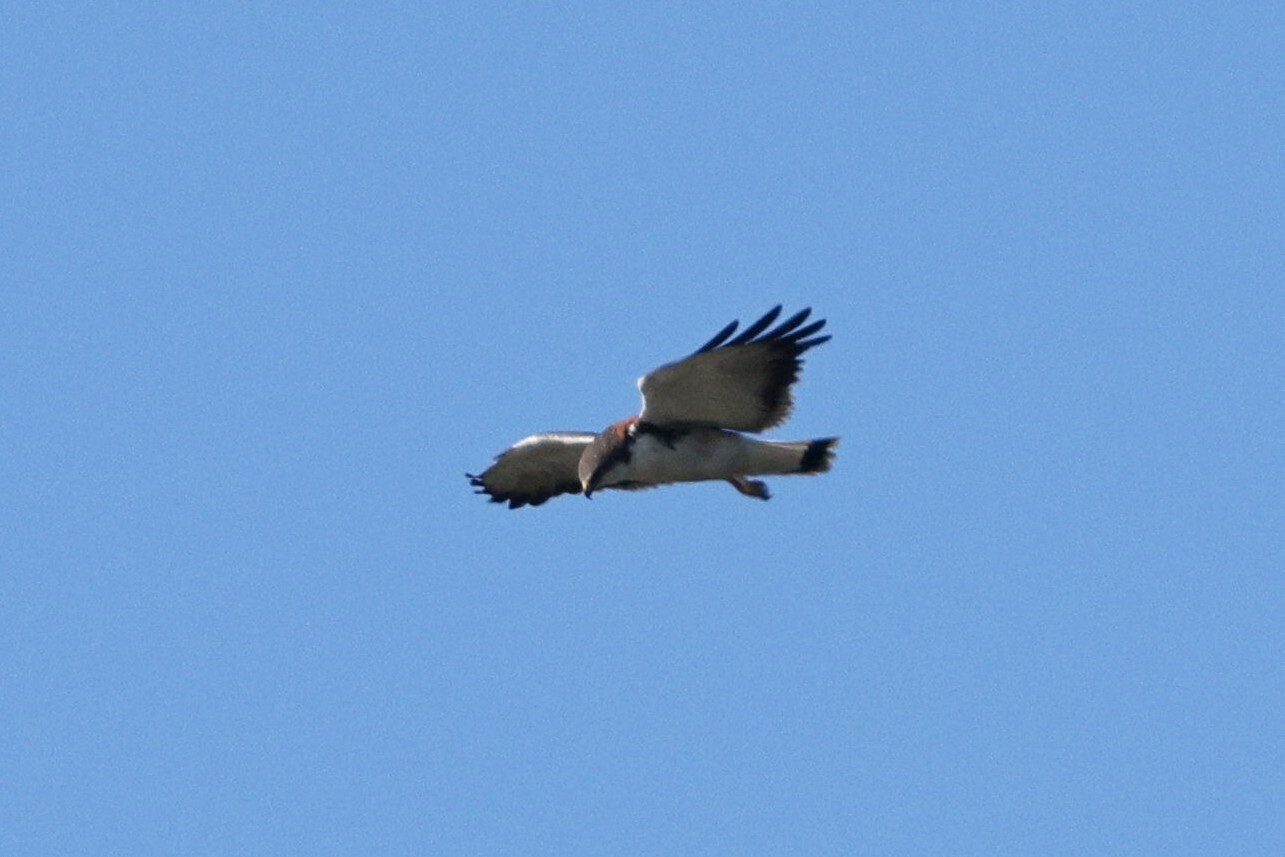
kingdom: Animalia
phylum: Chordata
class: Aves
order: Accipitriformes
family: Accipitridae
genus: Buteo
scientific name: Buteo polyosoma
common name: Variable hawk
